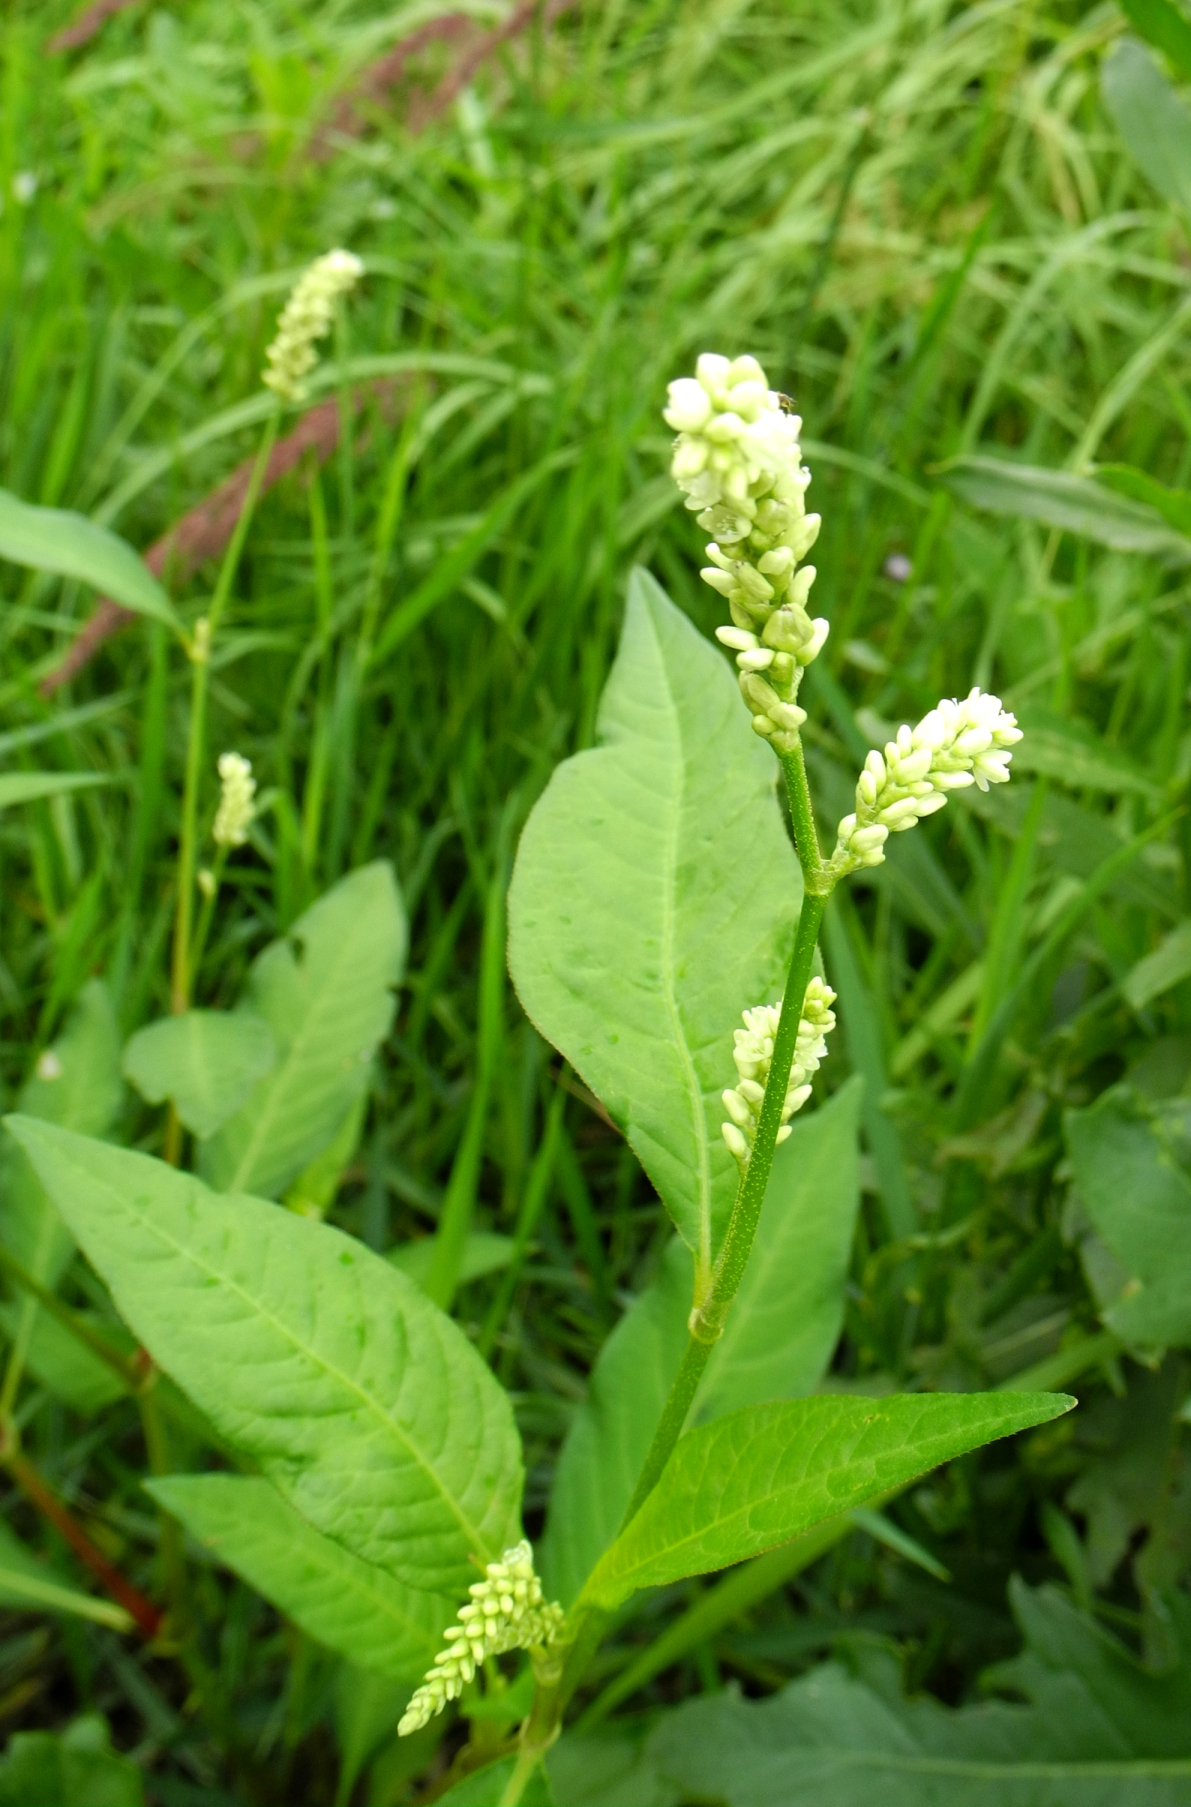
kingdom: Plantae
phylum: Tracheophyta
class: Magnoliopsida
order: Caryophyllales
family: Polygonaceae
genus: Persicaria
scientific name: Persicaria lapathifolia
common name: Curlytop knotweed
